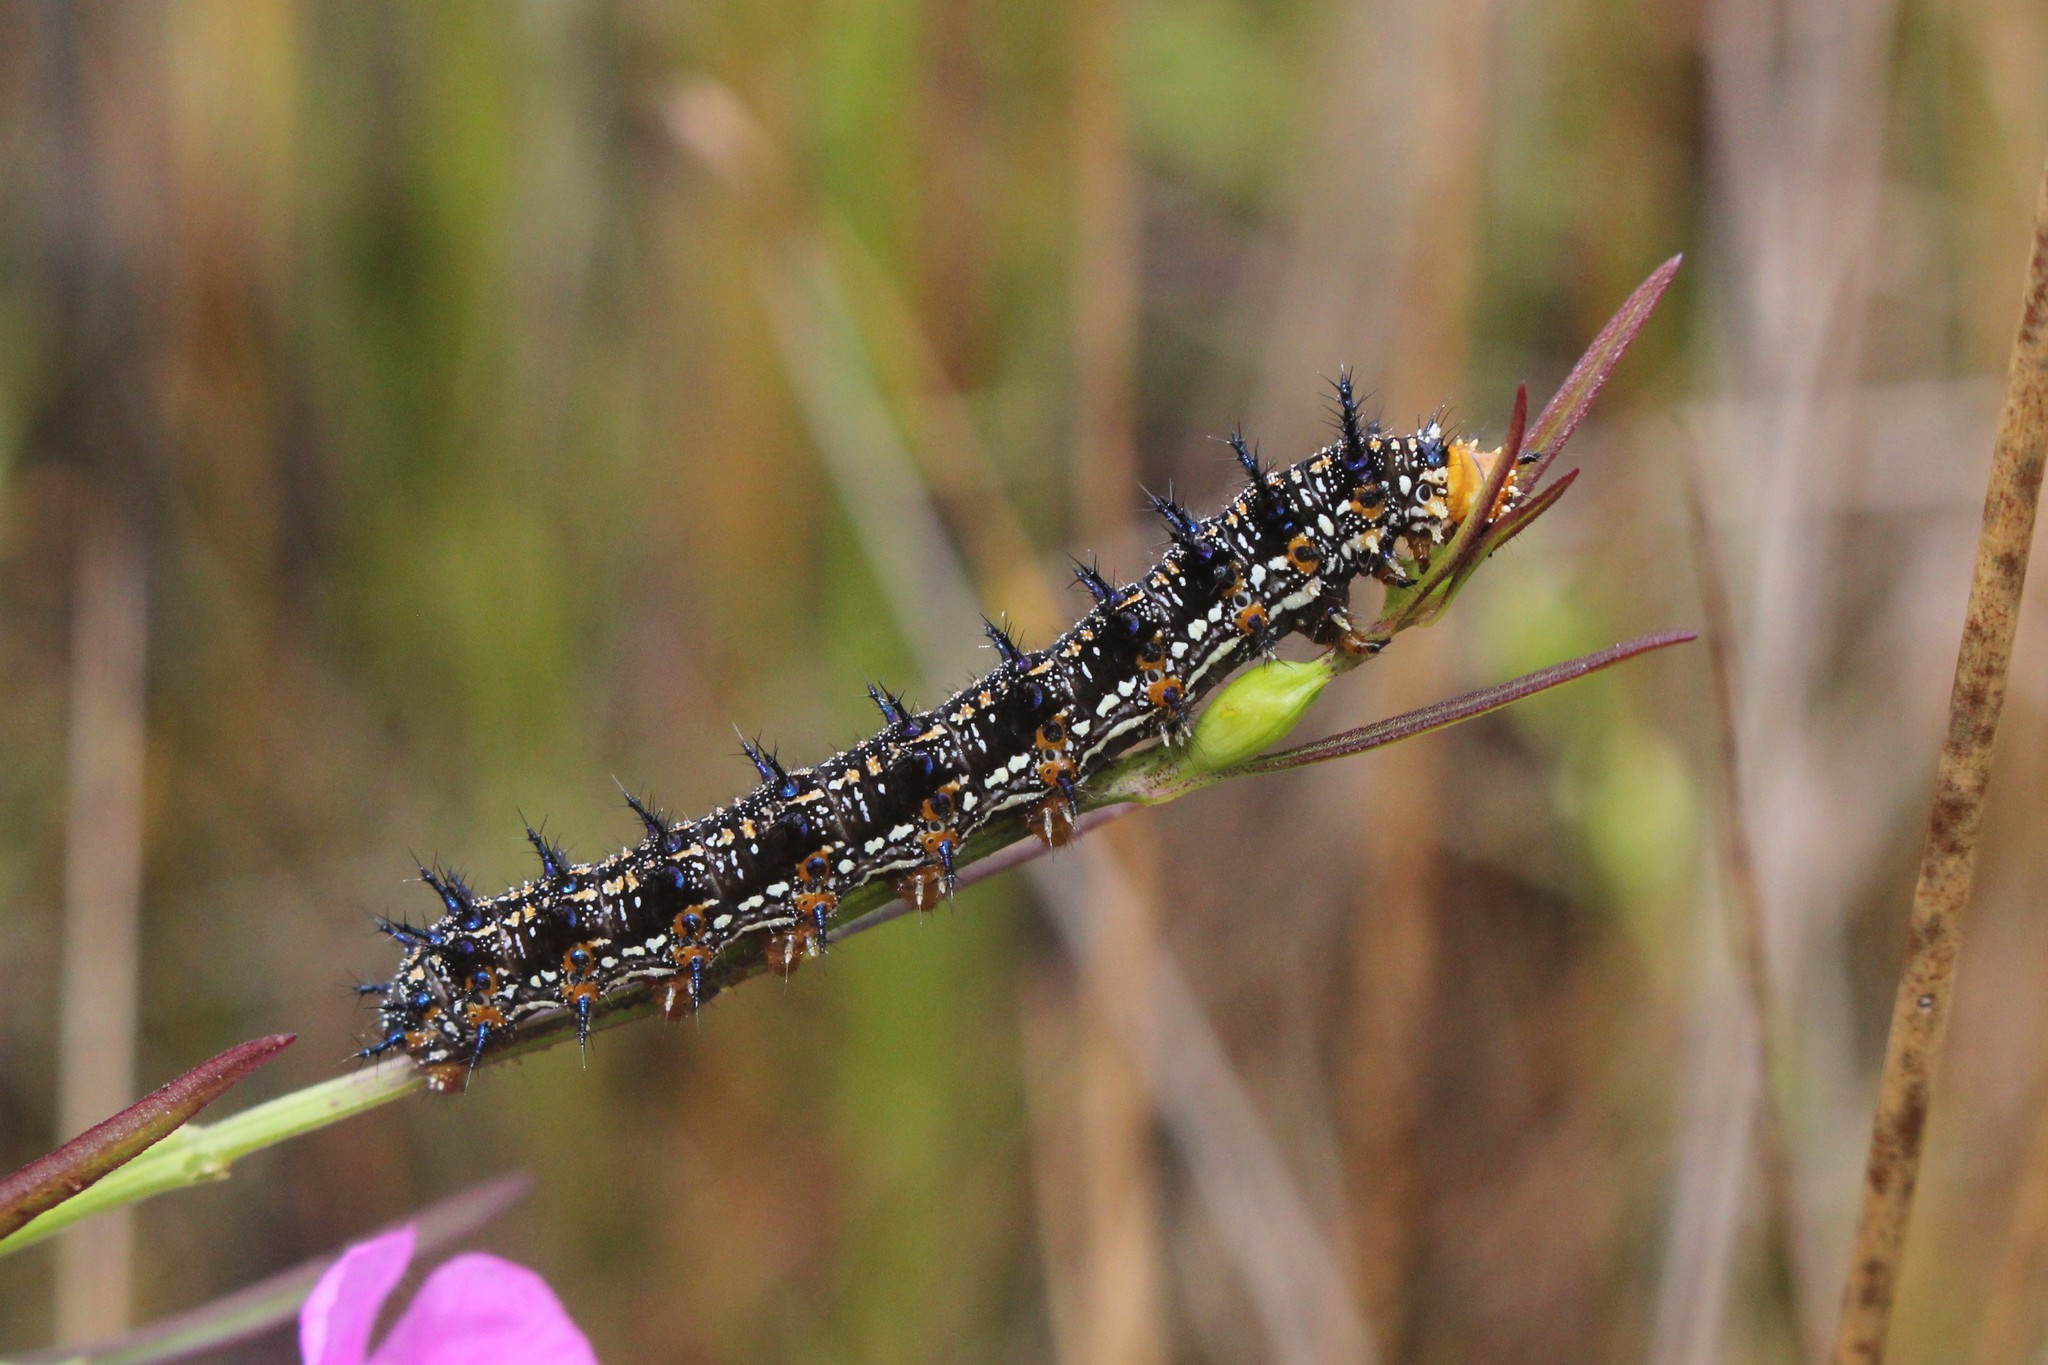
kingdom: Animalia
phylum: Arthropoda
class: Insecta
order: Lepidoptera
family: Nymphalidae
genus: Junonia
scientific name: Junonia coenia
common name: Common buckeye
